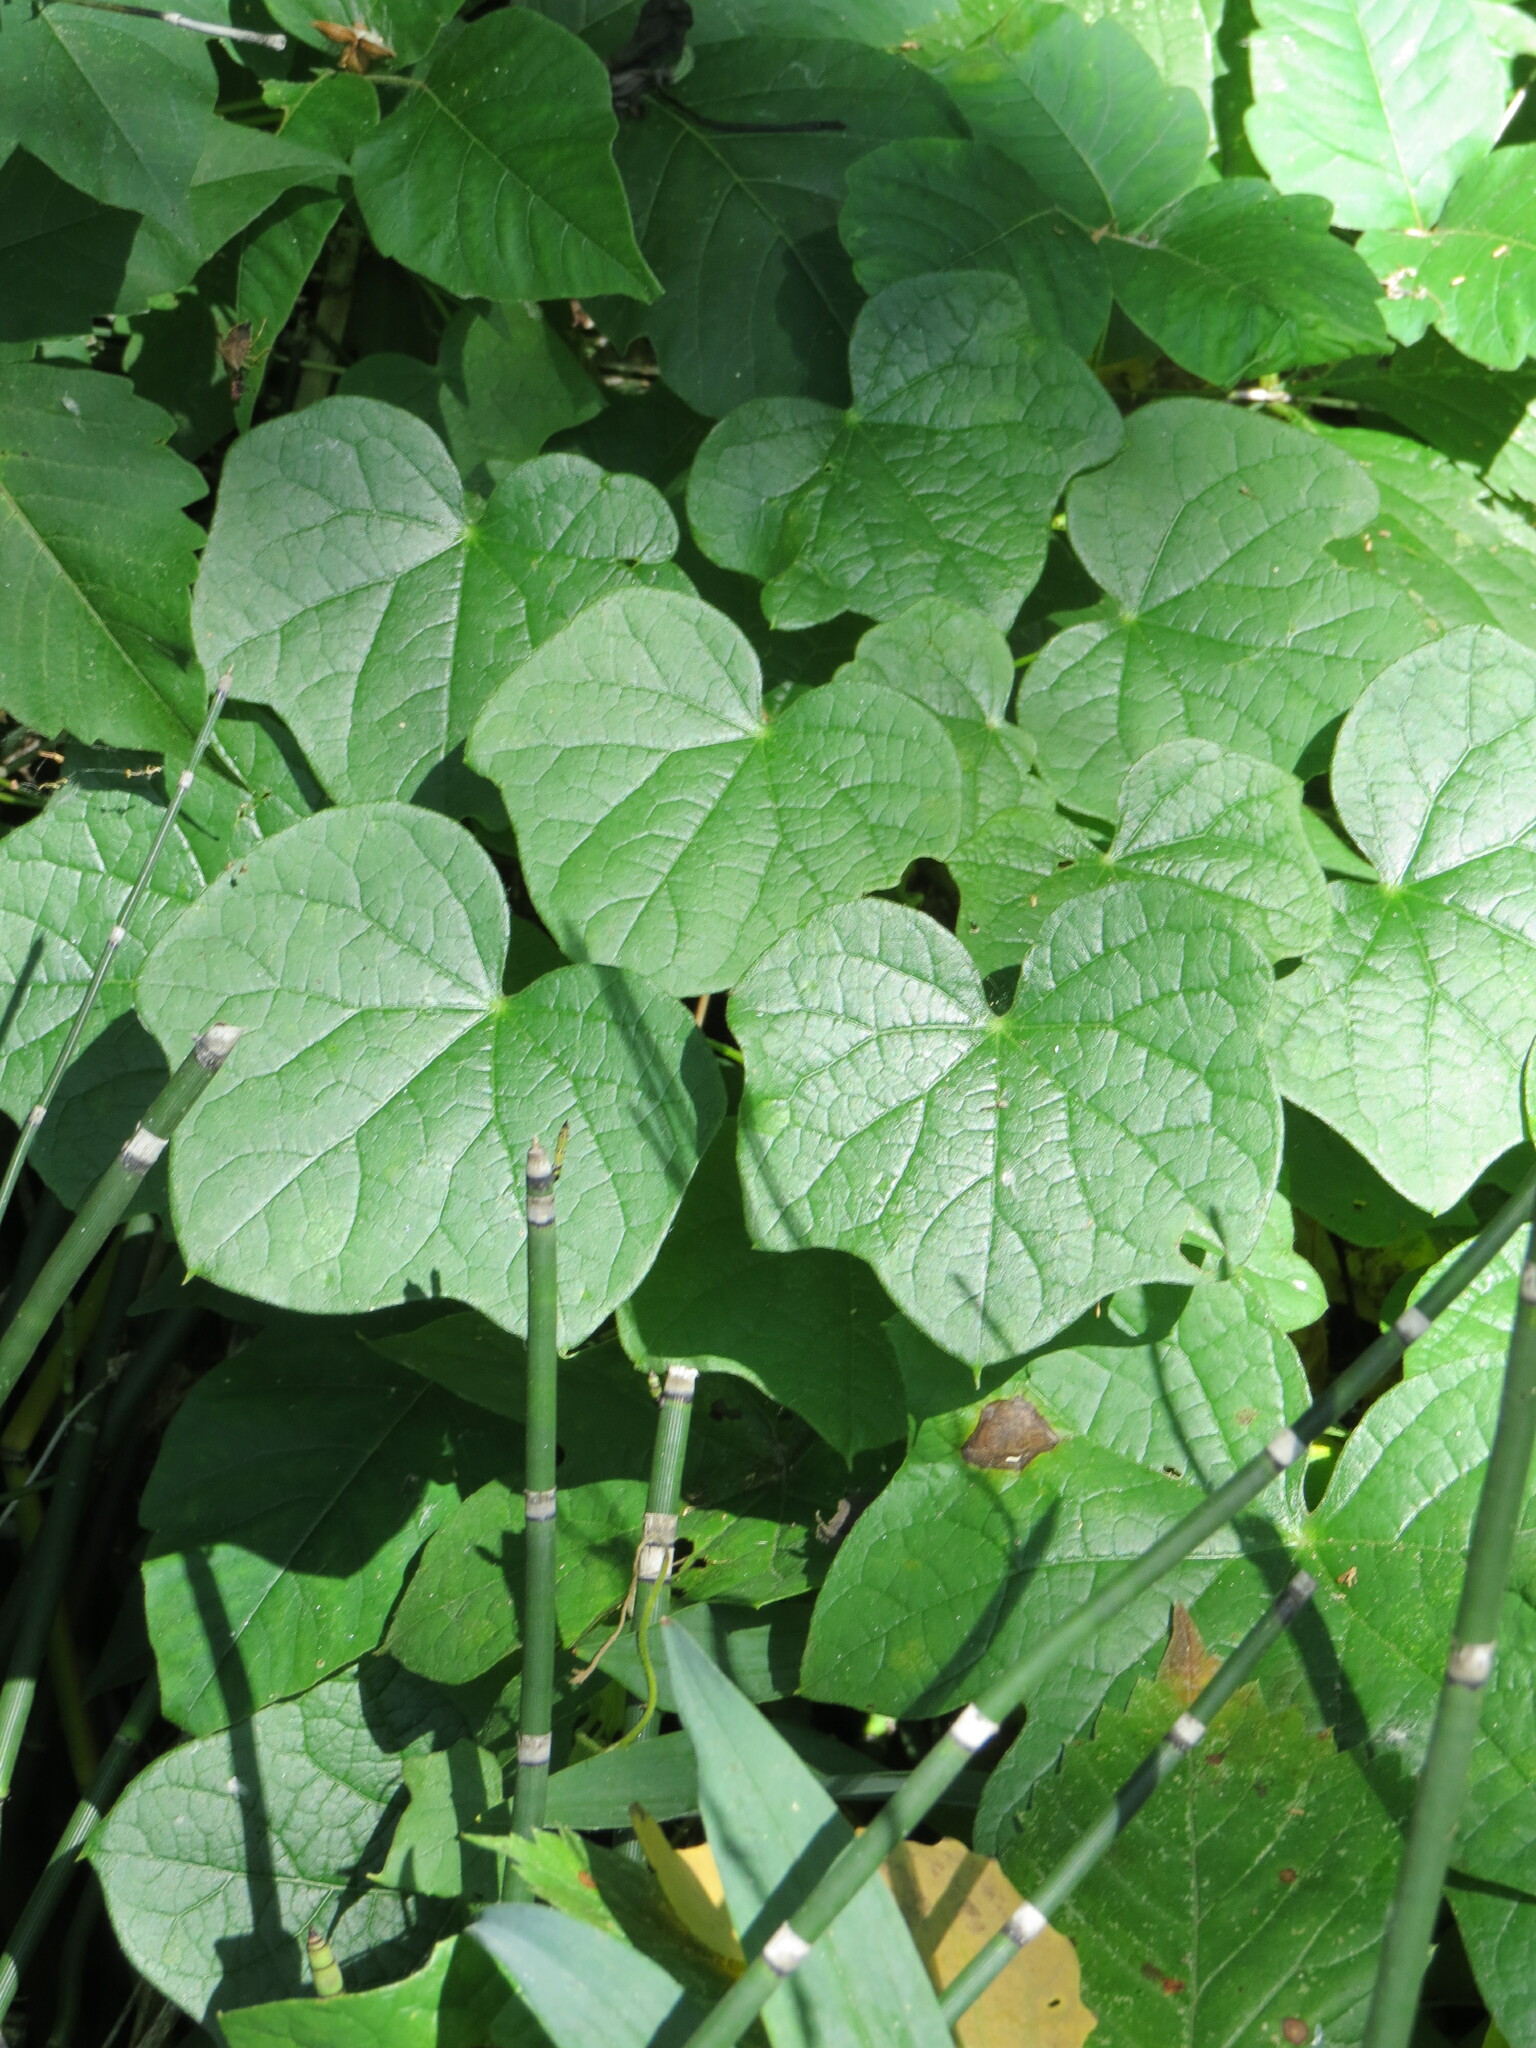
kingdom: Plantae
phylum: Tracheophyta
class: Magnoliopsida
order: Ranunculales
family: Menispermaceae
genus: Menispermum
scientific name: Menispermum canadense
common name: Moonseed
